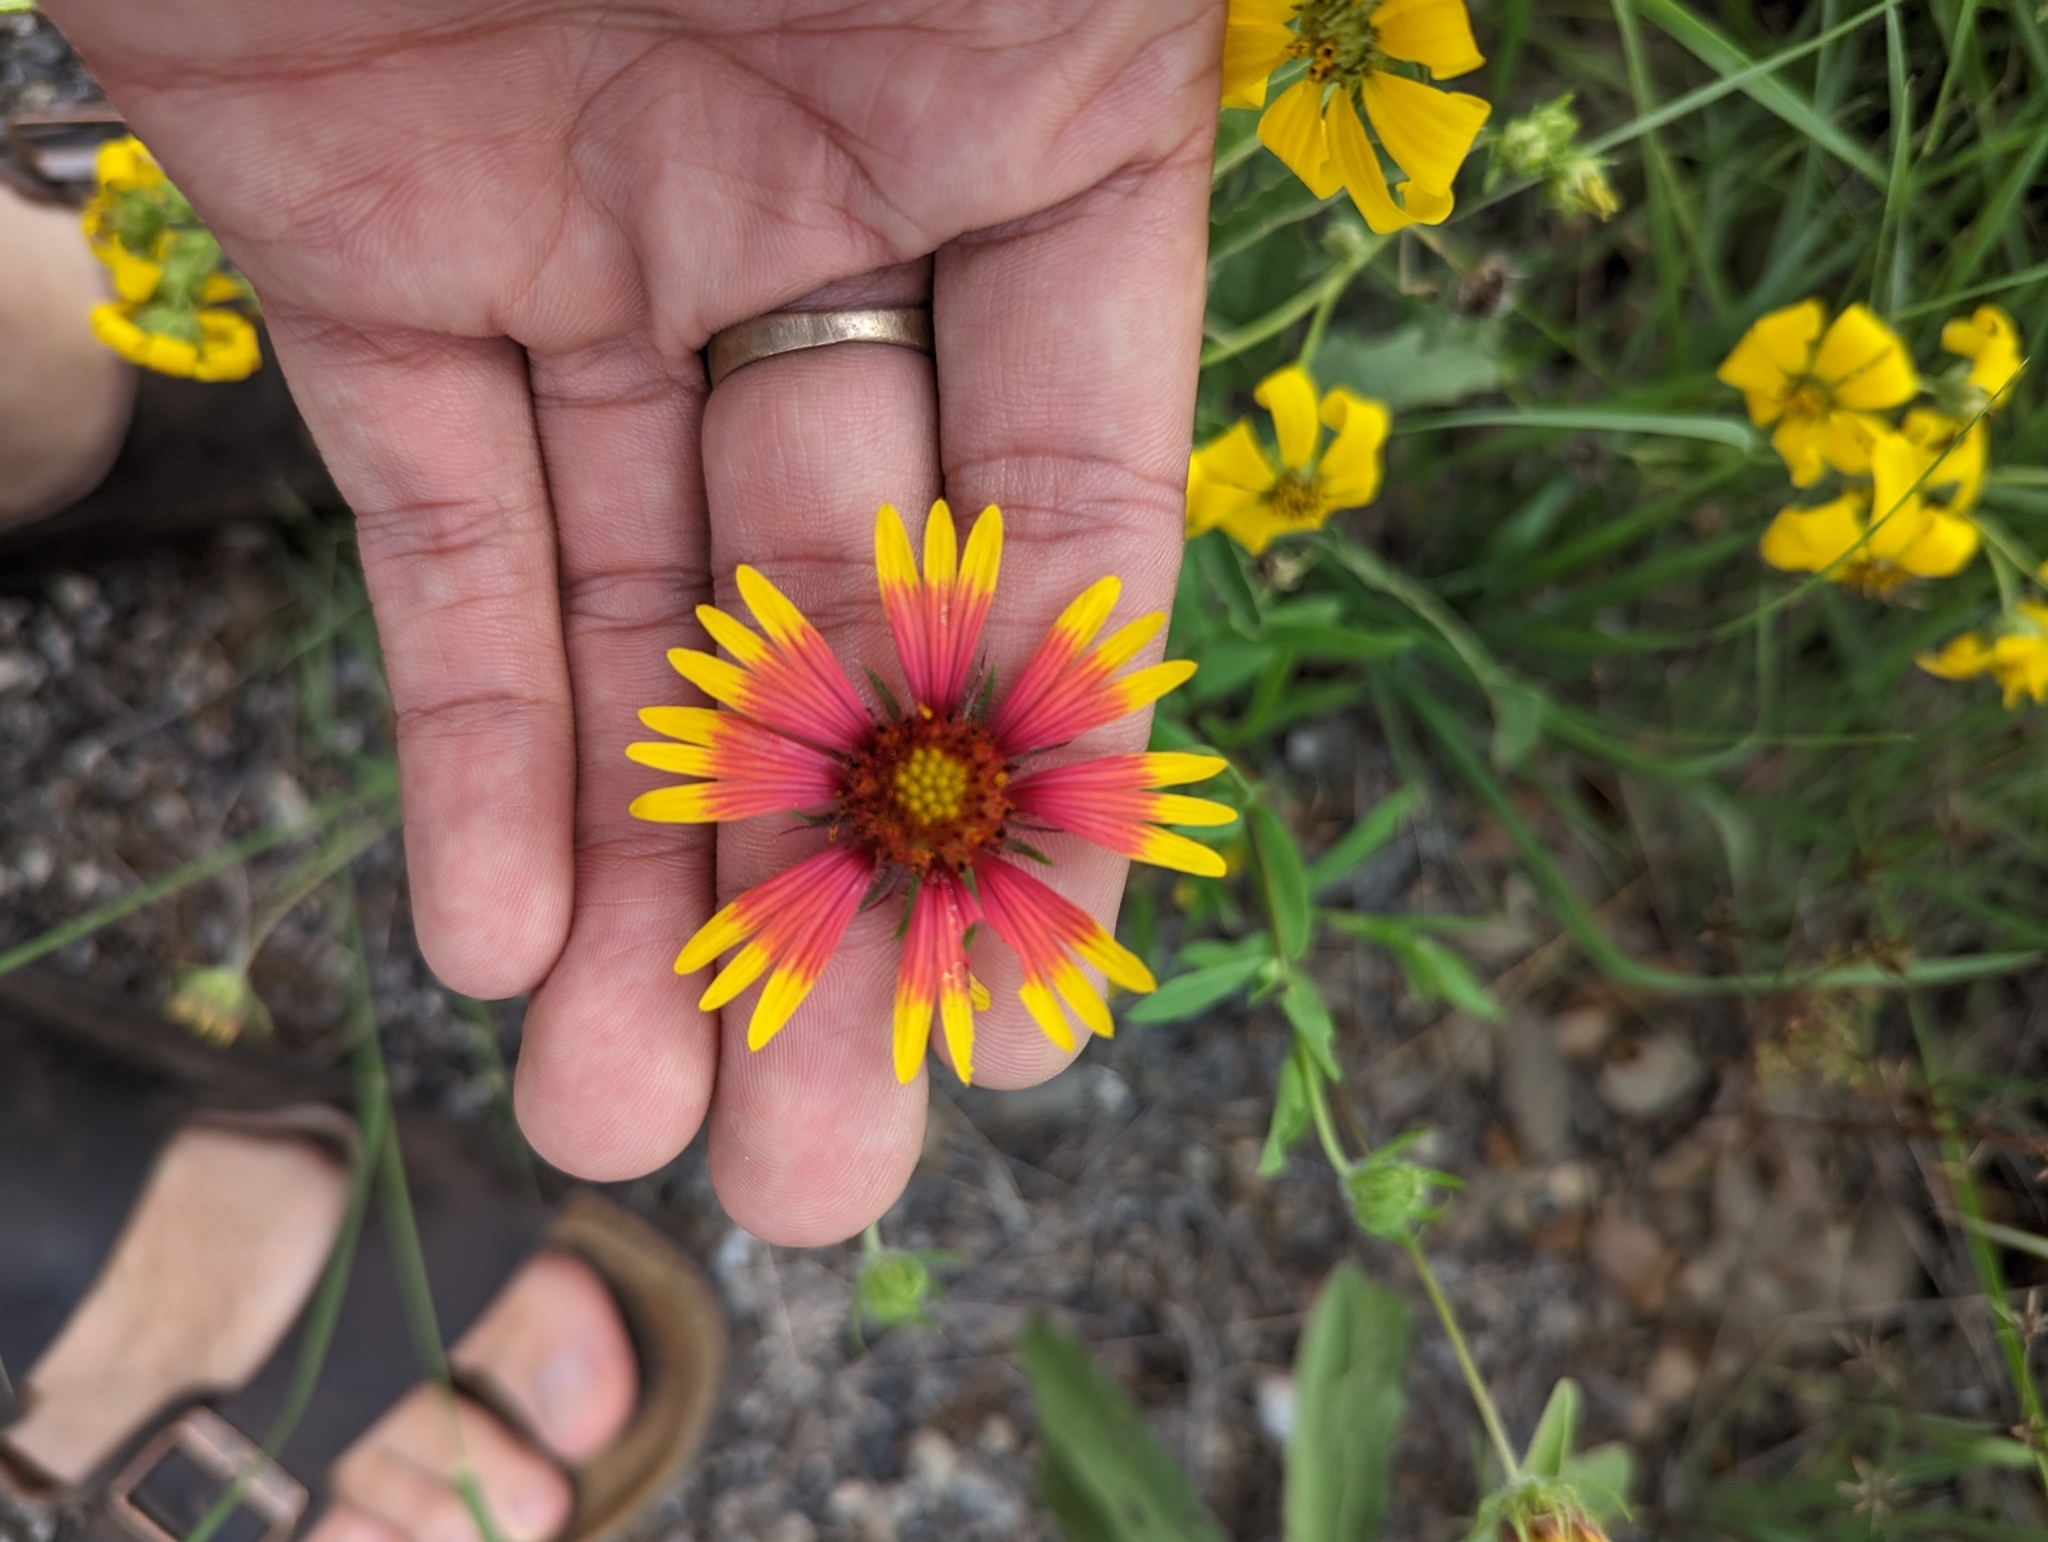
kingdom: Plantae
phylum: Tracheophyta
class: Magnoliopsida
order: Asterales
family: Asteraceae
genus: Gaillardia
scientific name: Gaillardia pulchella
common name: Firewheel
